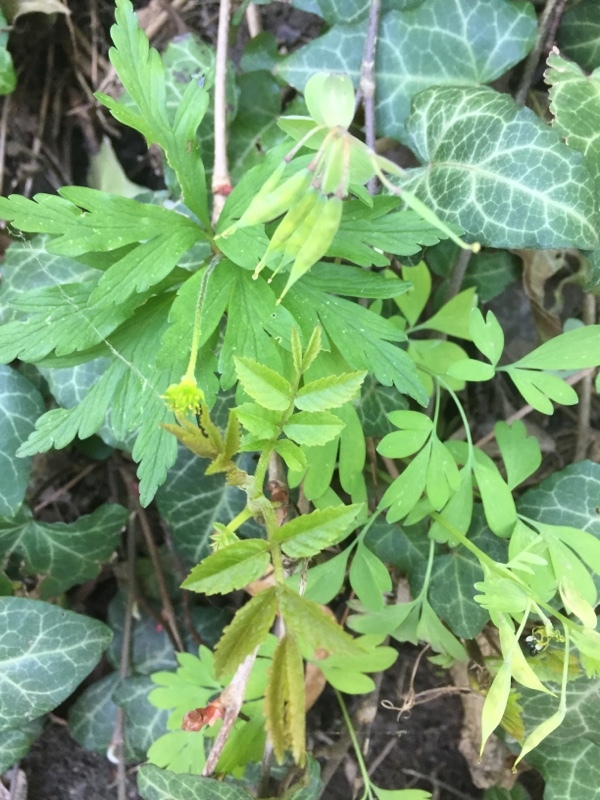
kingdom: Plantae
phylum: Tracheophyta
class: Magnoliopsida
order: Ranunculales
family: Papaveraceae
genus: Corydalis
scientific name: Corydalis solida
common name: Bird-in-a-bush
